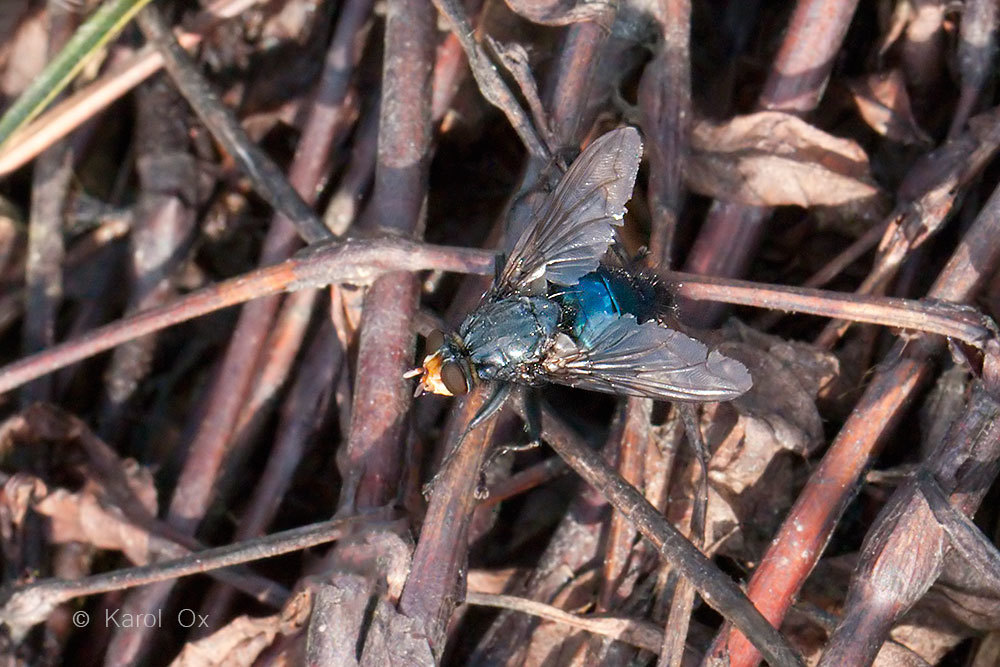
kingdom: Animalia
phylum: Arthropoda
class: Insecta
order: Diptera
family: Calliphoridae
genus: Cynomya
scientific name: Cynomya mortuorum
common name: Bluebottle blow fly
